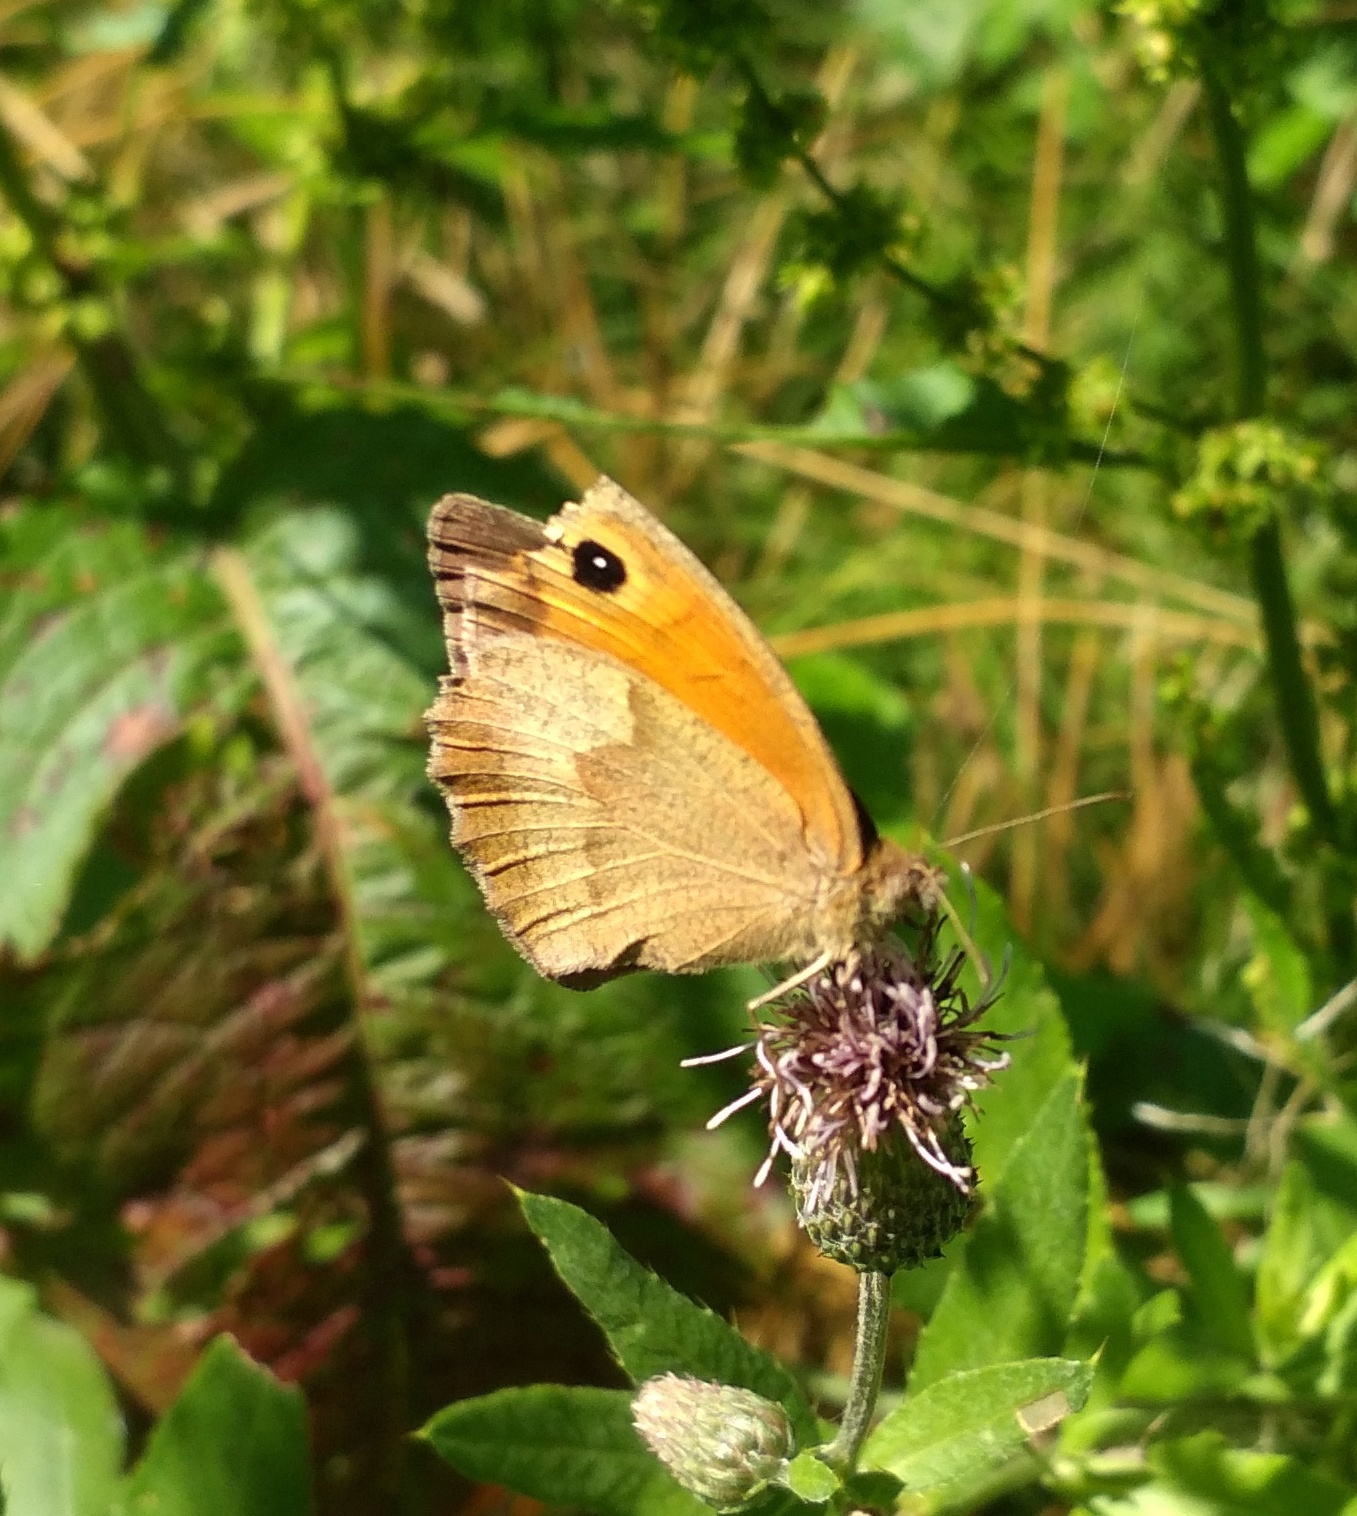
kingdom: Animalia
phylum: Arthropoda
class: Insecta
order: Lepidoptera
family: Nymphalidae
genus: Maniola
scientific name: Maniola jurtina
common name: Meadow brown
